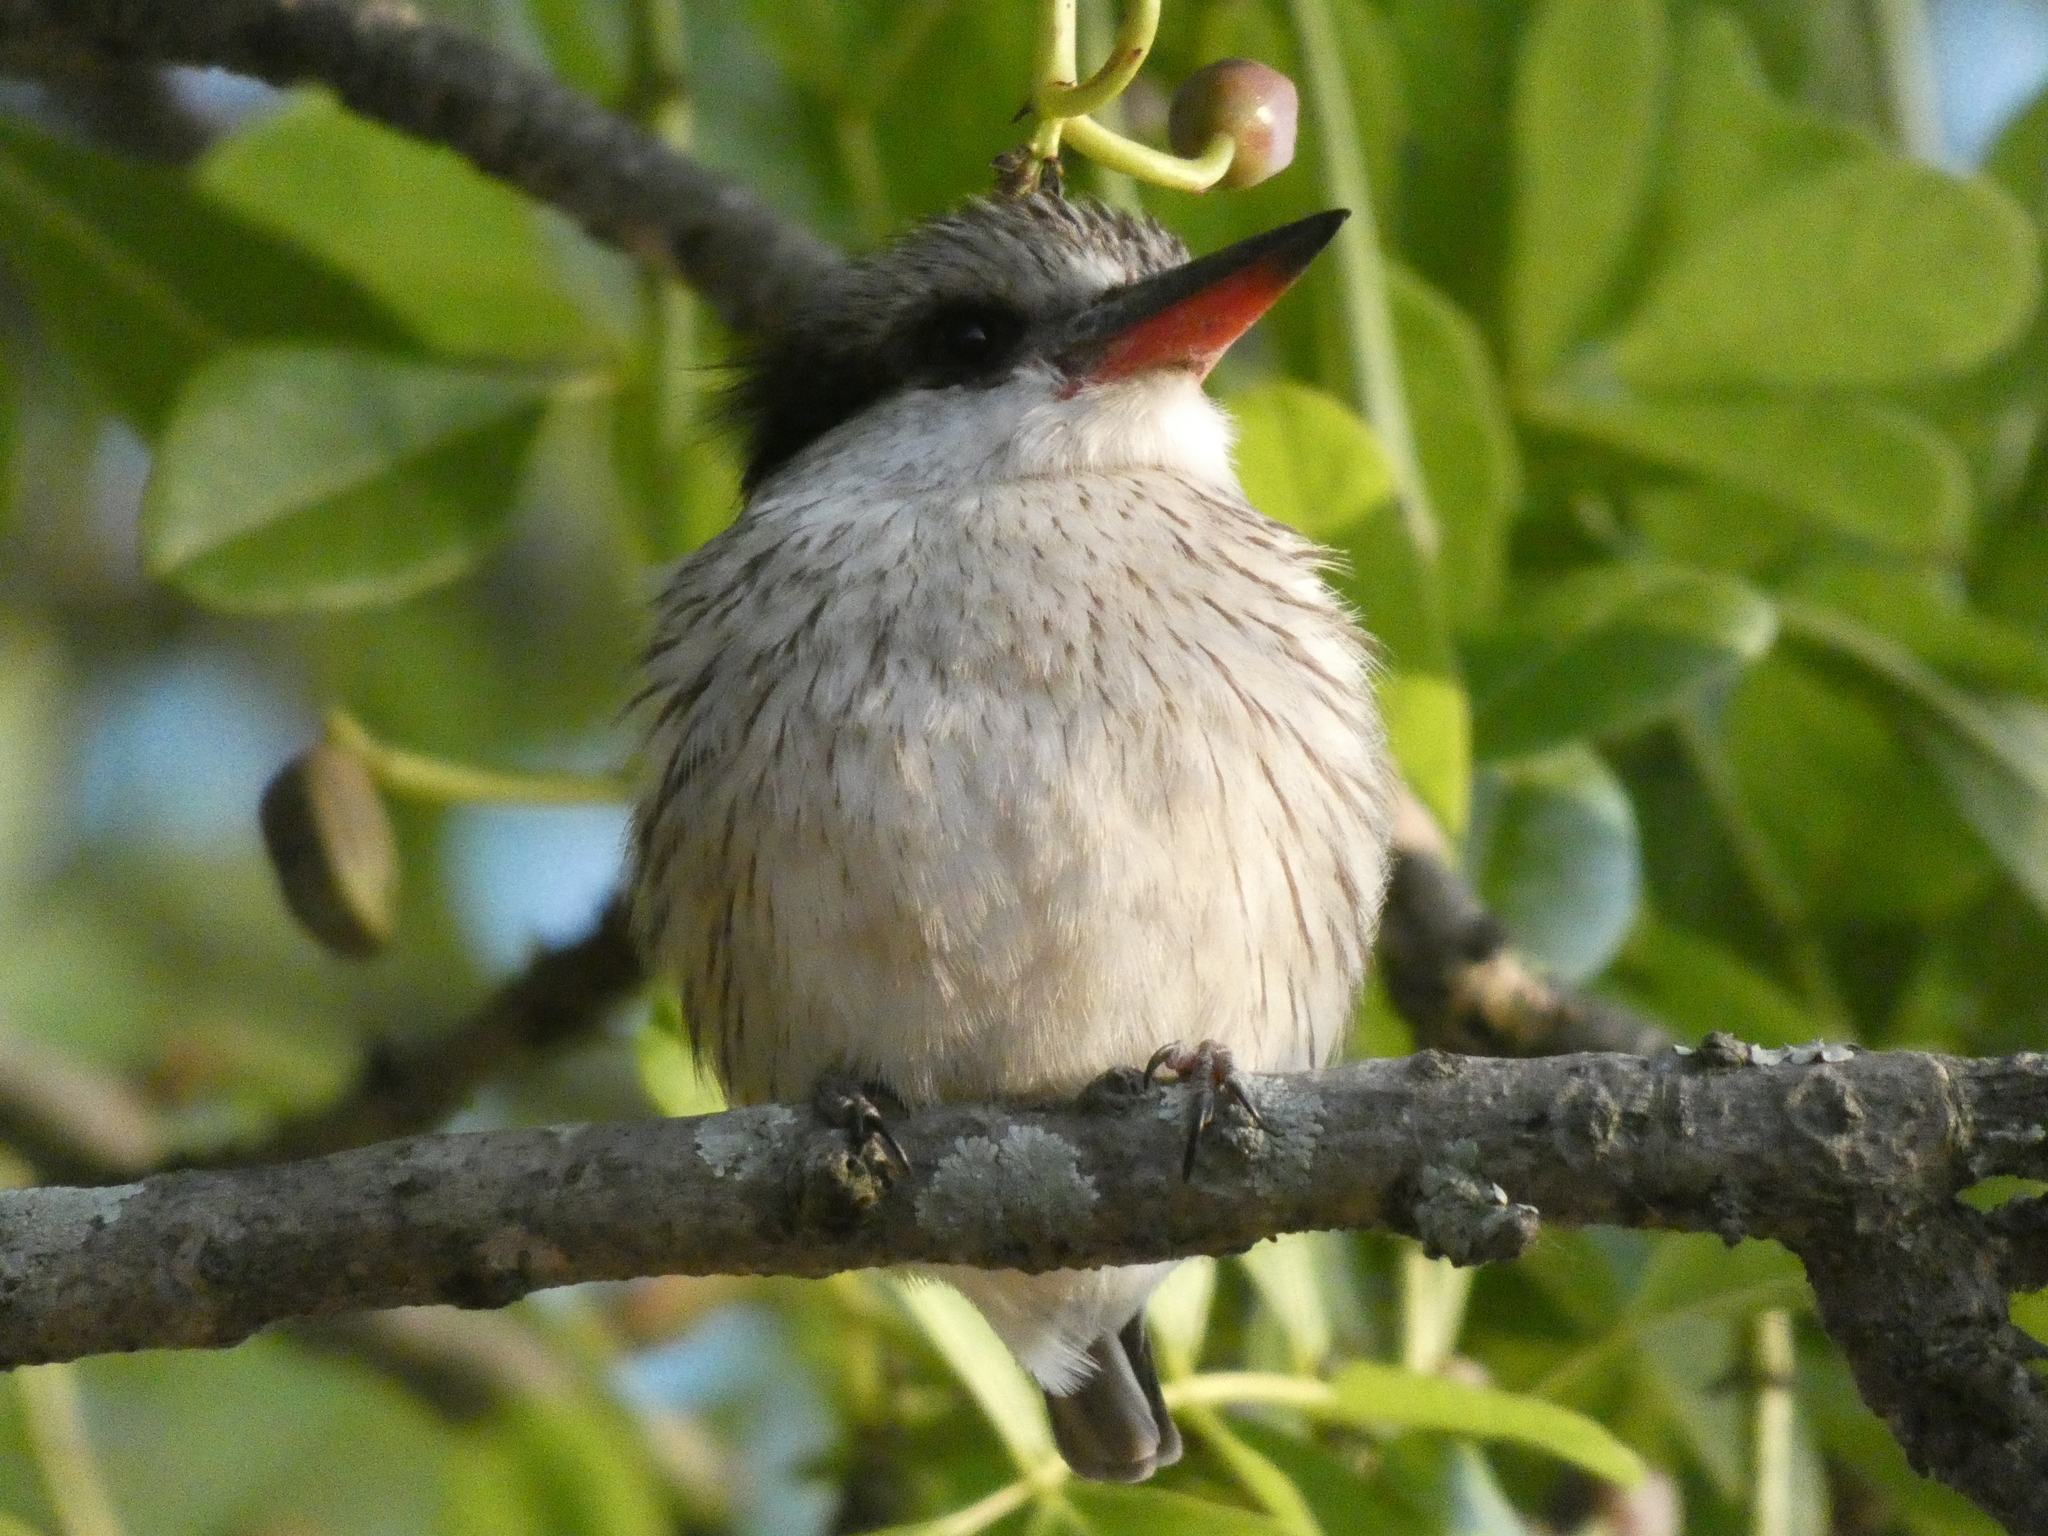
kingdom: Animalia
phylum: Chordata
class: Aves
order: Coraciiformes
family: Alcedinidae
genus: Halcyon
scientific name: Halcyon chelicuti
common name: Striped kingfisher
